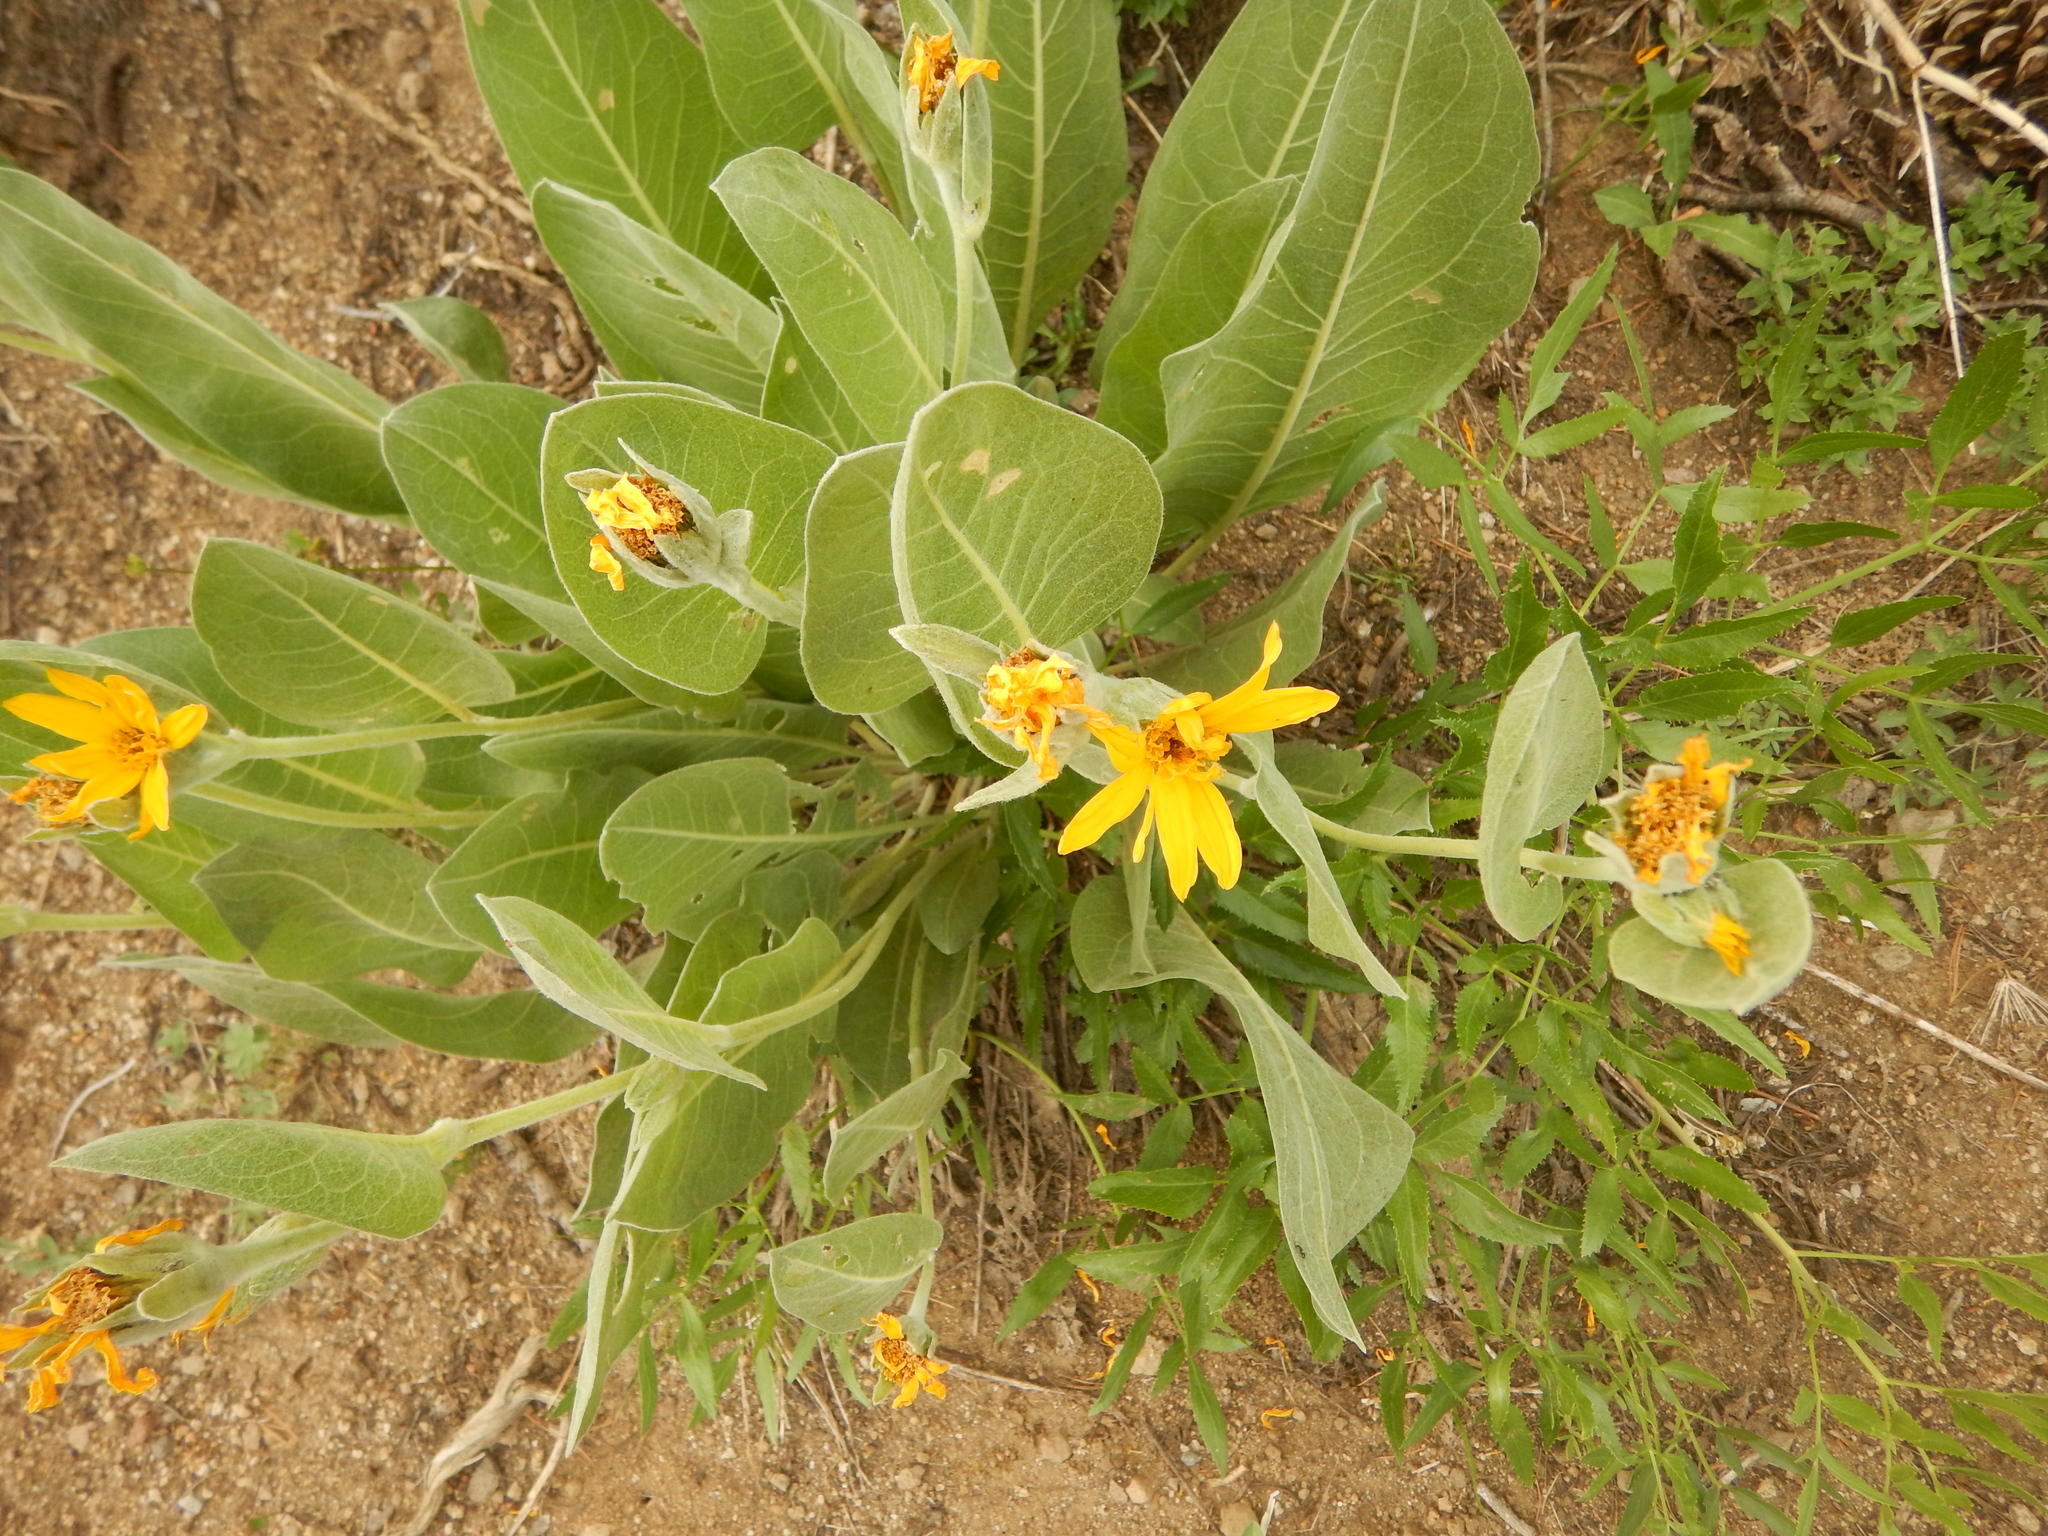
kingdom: Plantae
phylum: Tracheophyta
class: Magnoliopsida
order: Asterales
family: Asteraceae
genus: Wyethia
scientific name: Wyethia mollis
